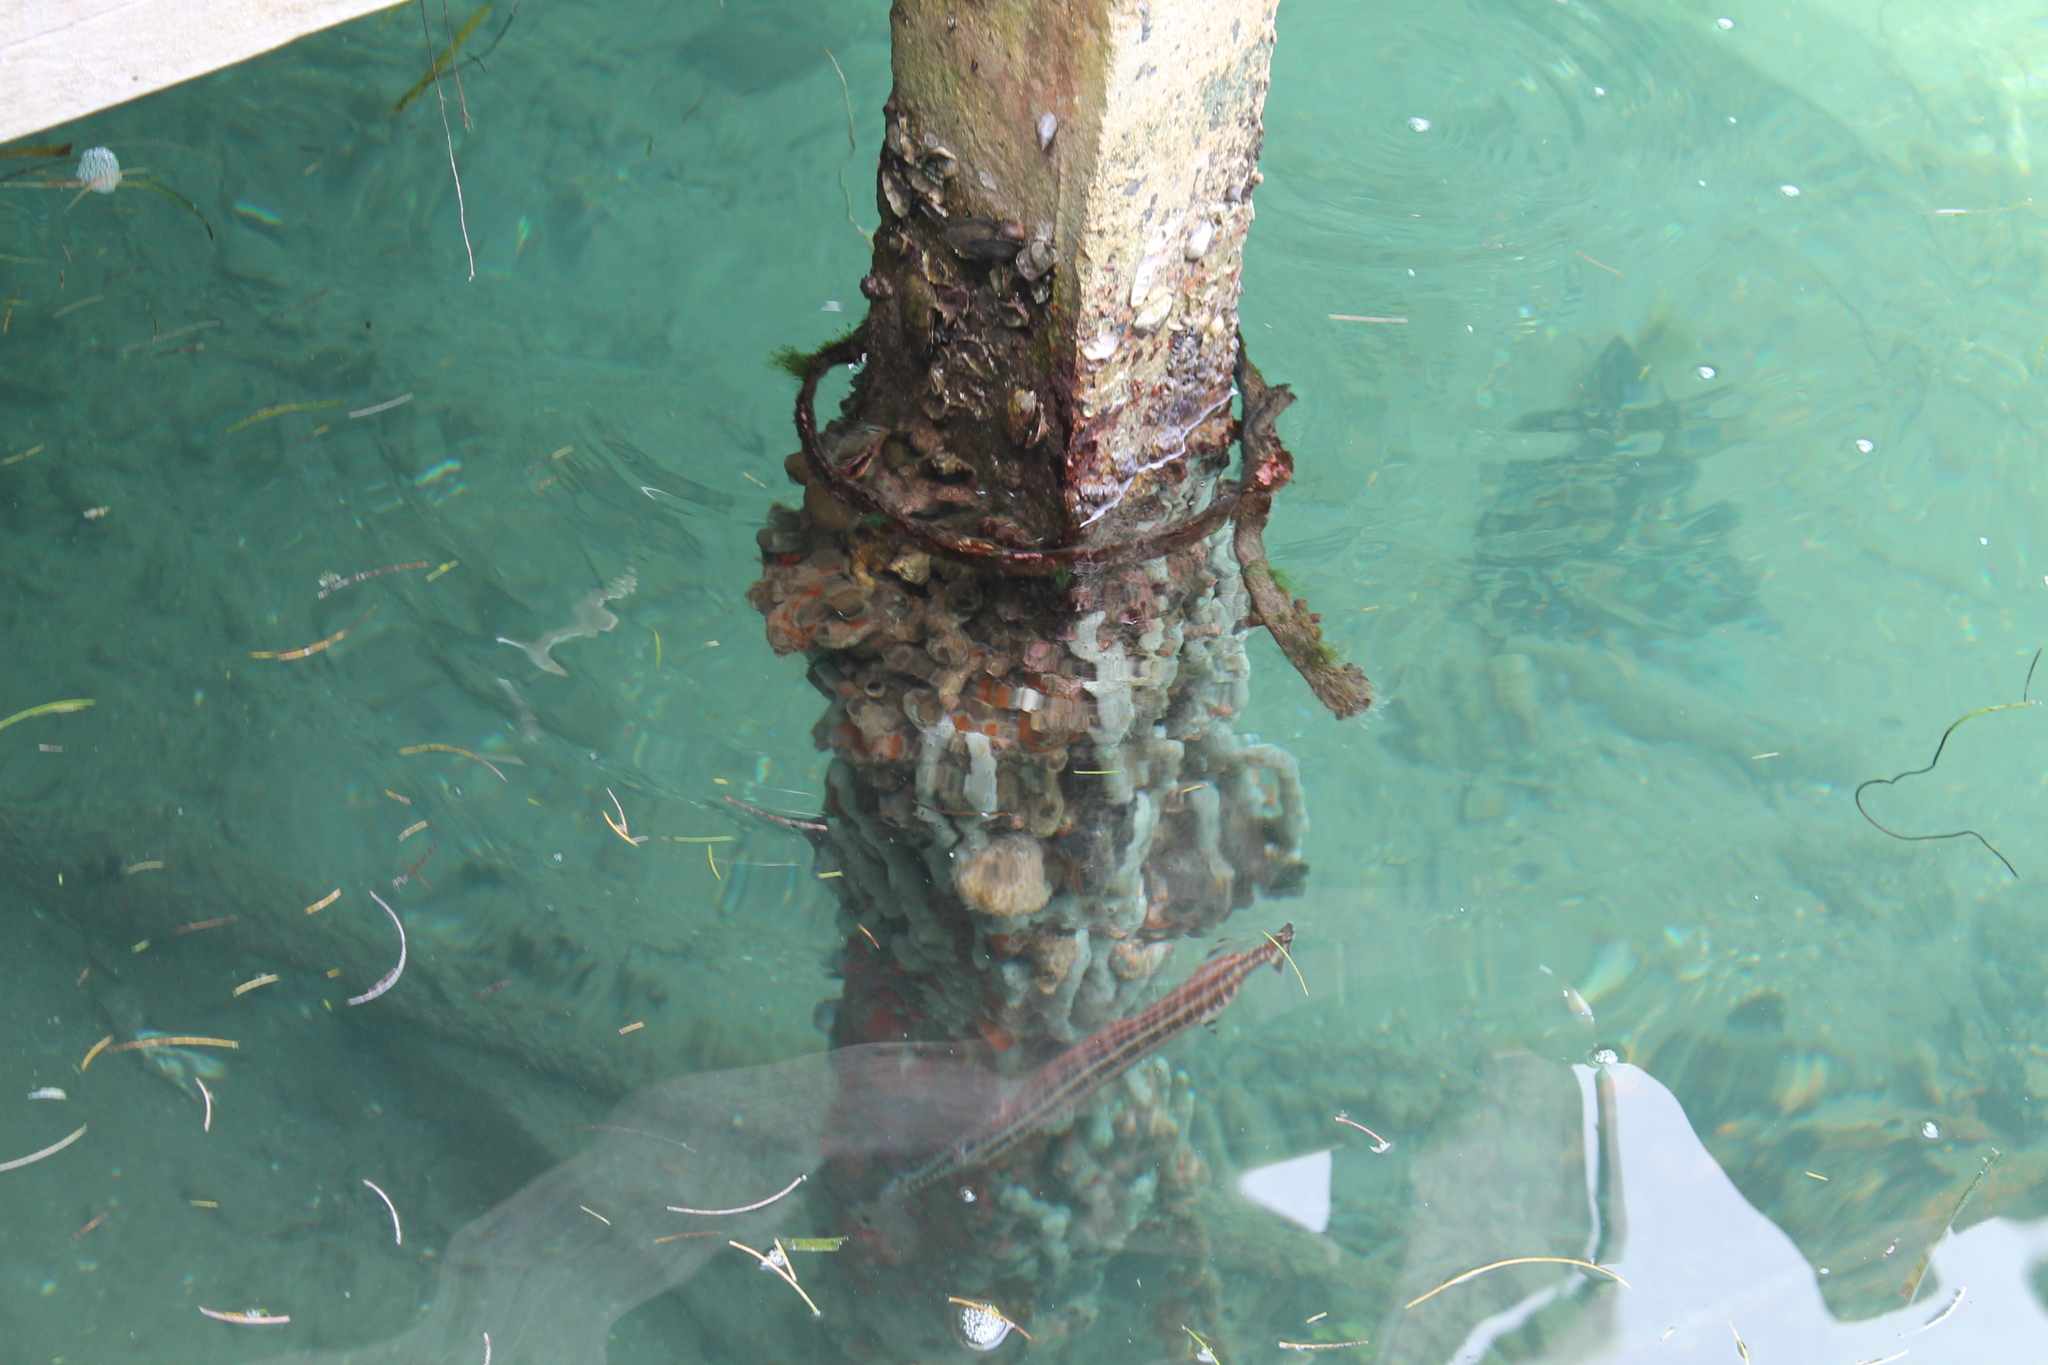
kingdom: Animalia
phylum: Chordata
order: Syngnathiformes
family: Aulostomidae
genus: Aulostomus
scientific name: Aulostomus maculatus
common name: West atlantic trumpetfish
